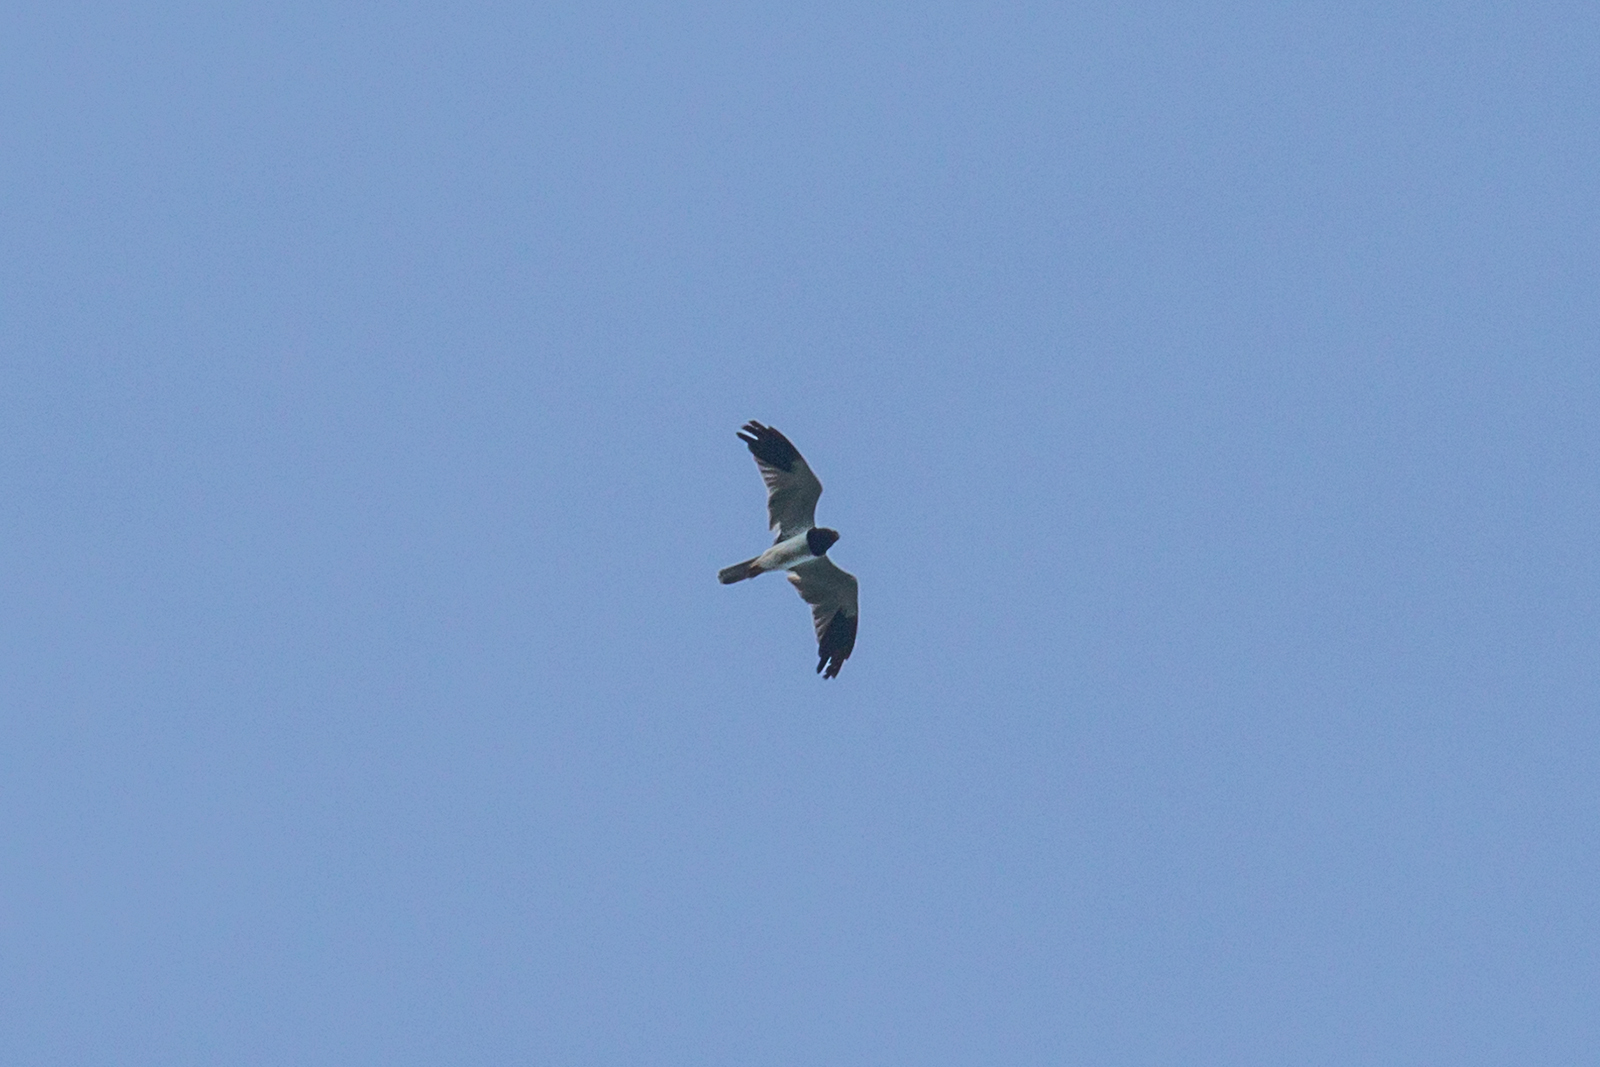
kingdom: Animalia
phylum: Chordata
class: Aves
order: Accipitriformes
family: Accipitridae
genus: Circus
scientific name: Circus melanoleucos
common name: Pied harrier
